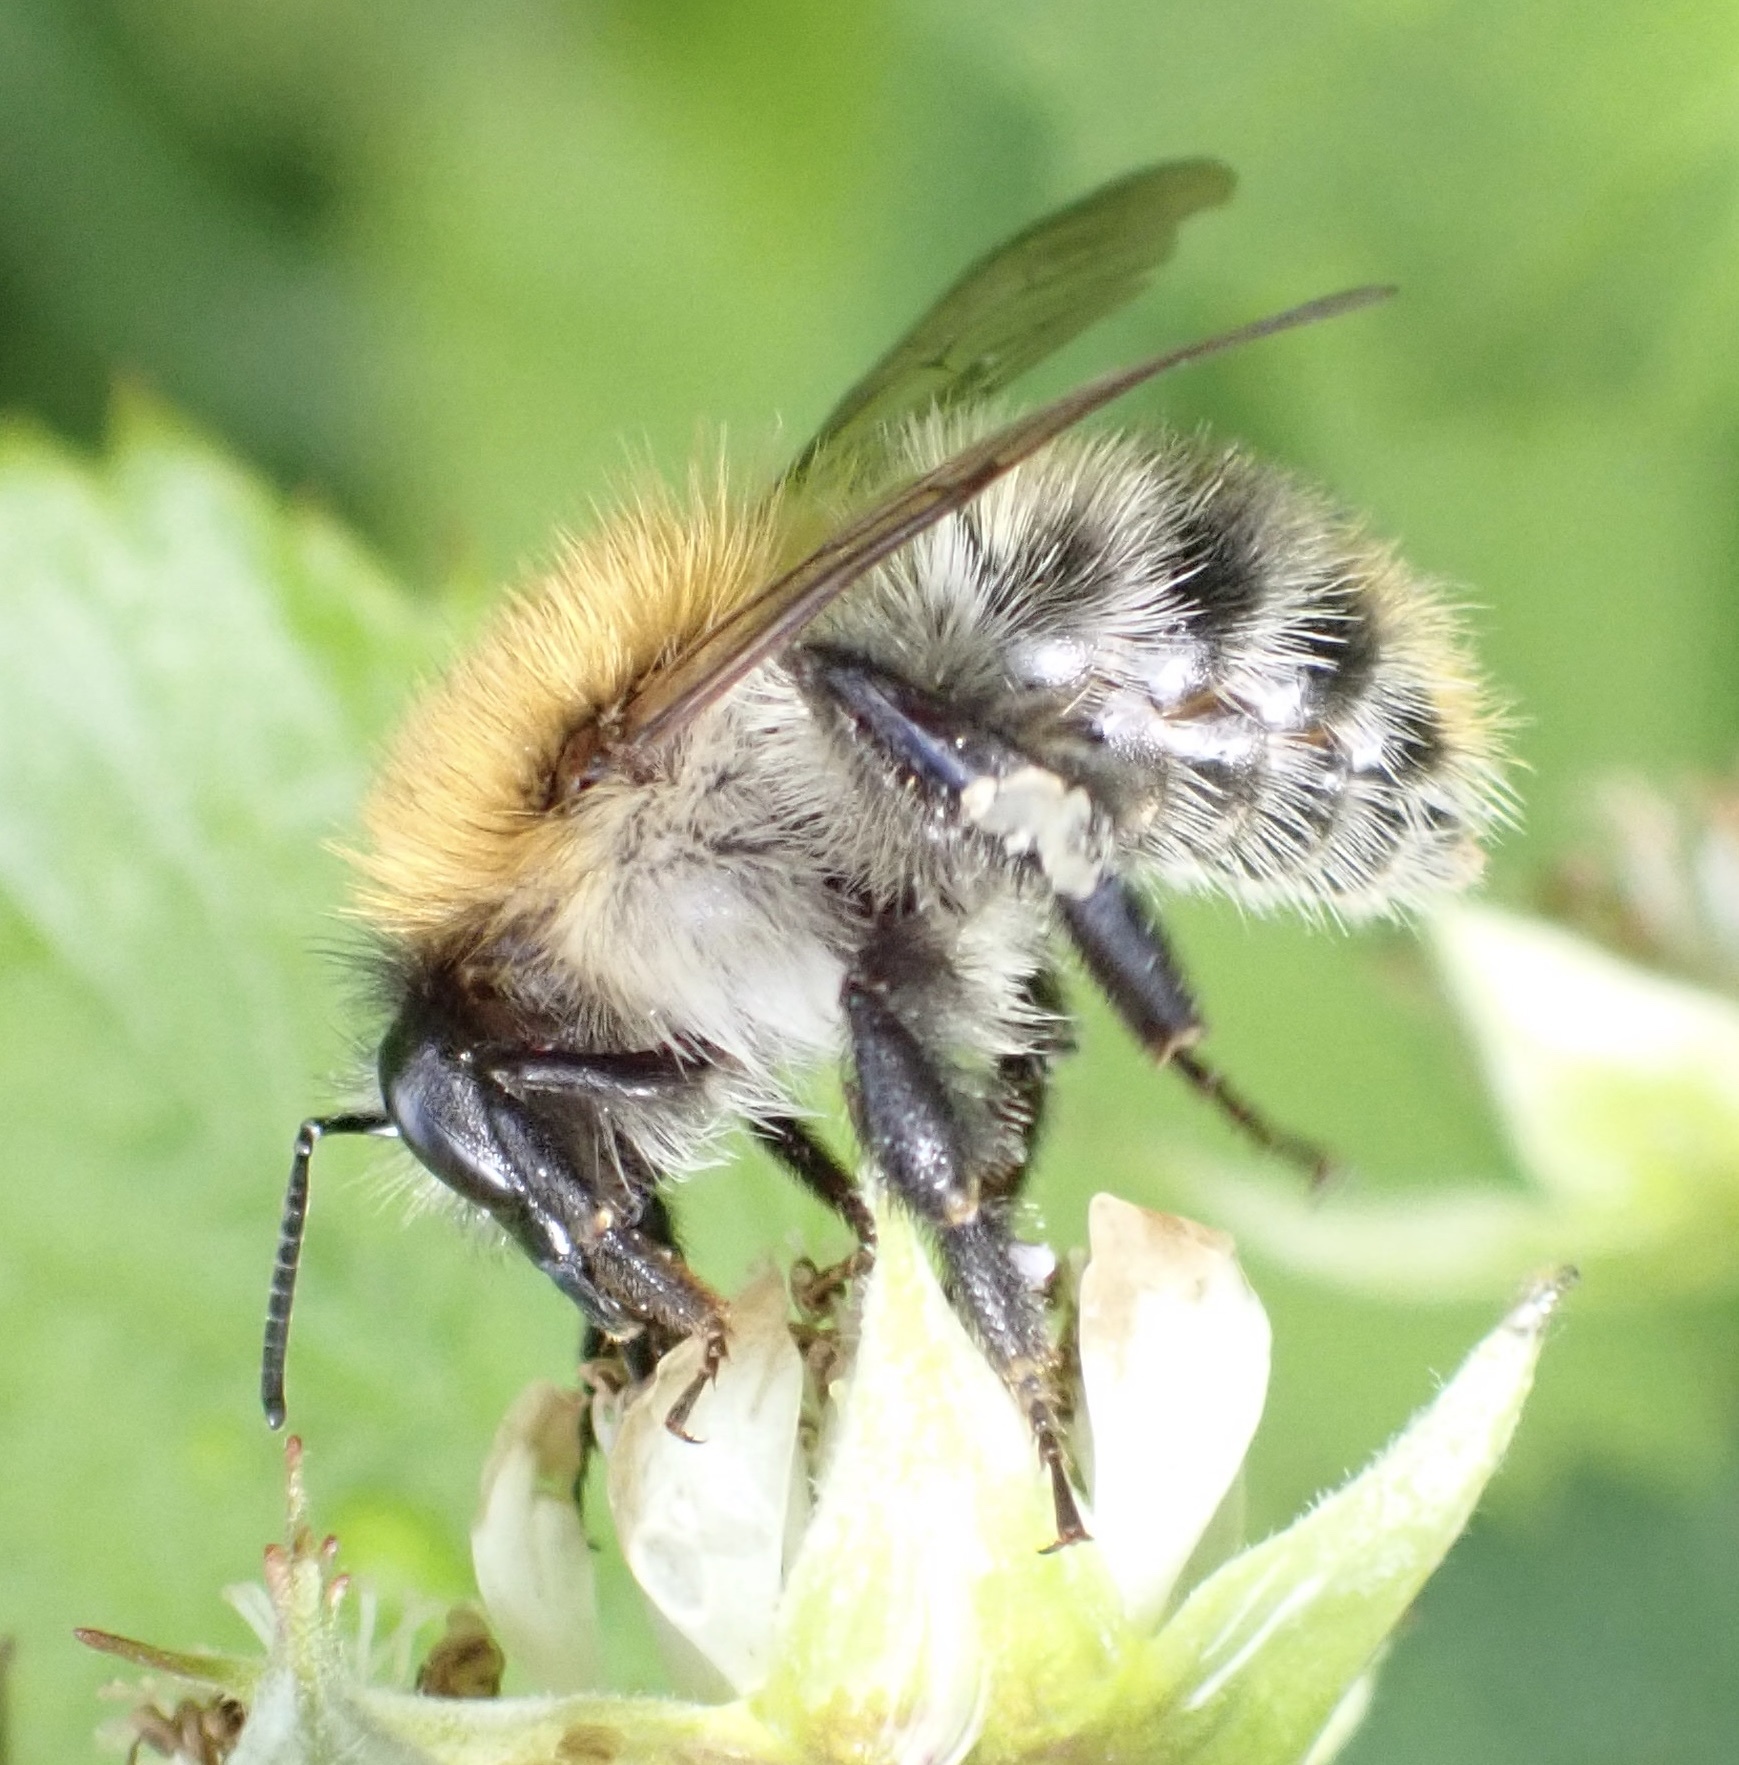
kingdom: Animalia
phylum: Arthropoda
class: Insecta
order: Hymenoptera
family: Apidae
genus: Bombus
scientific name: Bombus pascuorum
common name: Common carder bee
